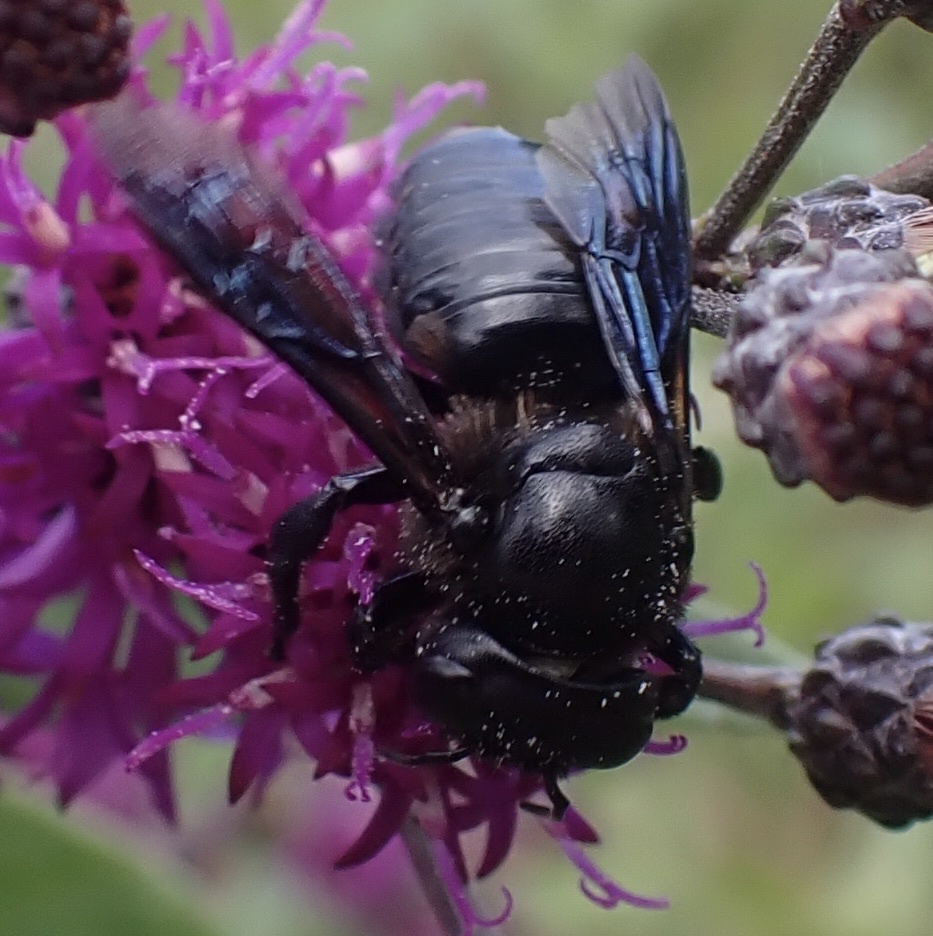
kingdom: Animalia
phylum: Arthropoda
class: Insecta
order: Hymenoptera
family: Megachilidae
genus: Megachile
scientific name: Megachile xylocopoides
